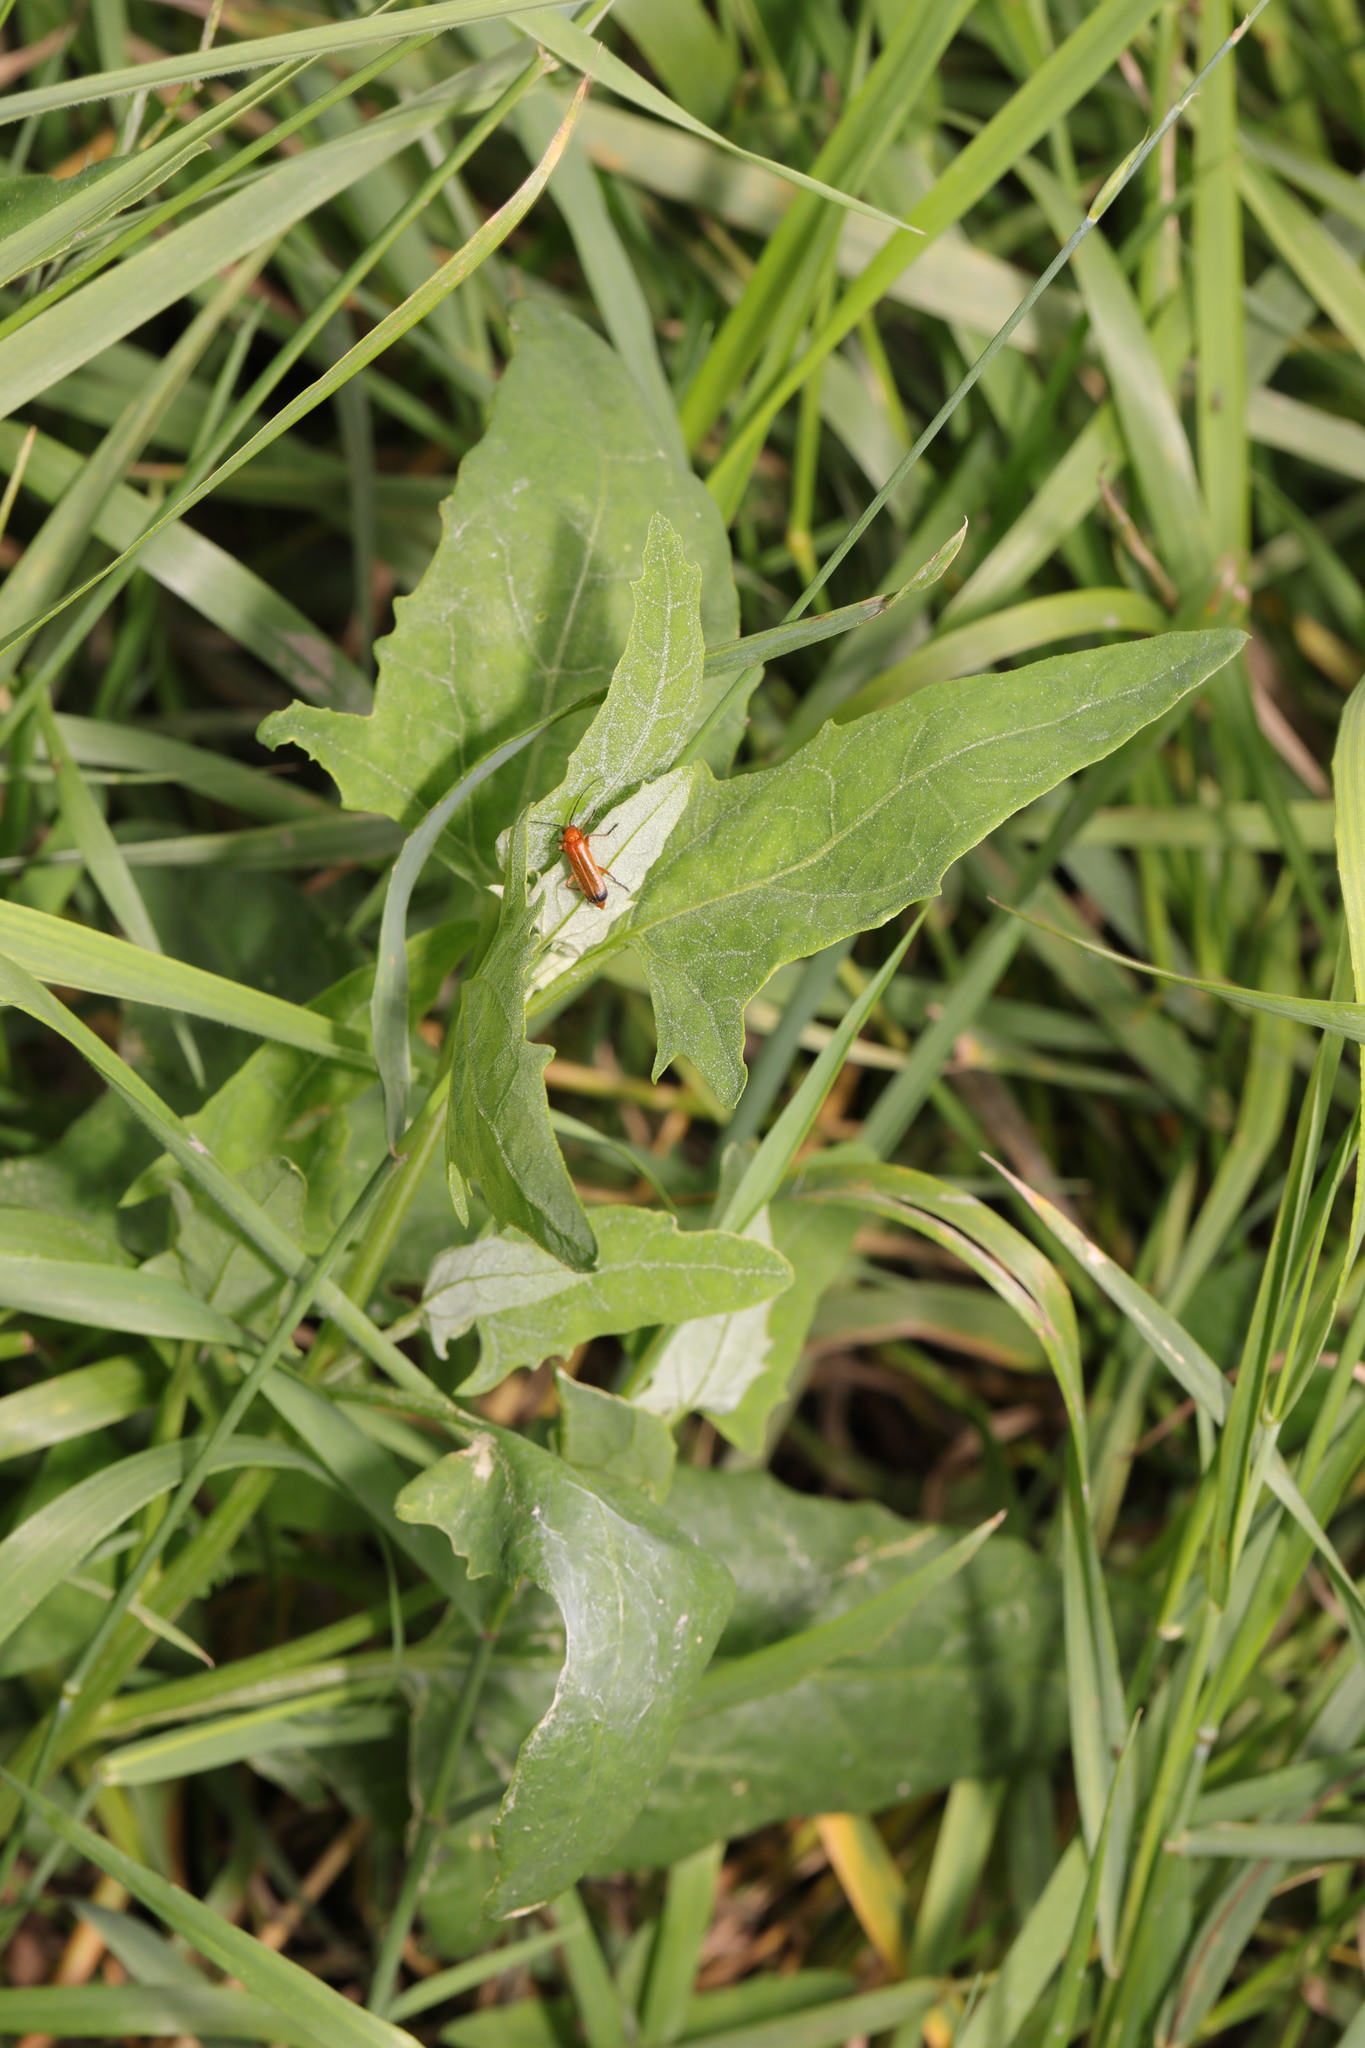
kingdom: Plantae
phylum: Tracheophyta
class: Magnoliopsida
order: Caryophyllales
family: Amaranthaceae
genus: Atriplex
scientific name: Atriplex patula
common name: Common orache
